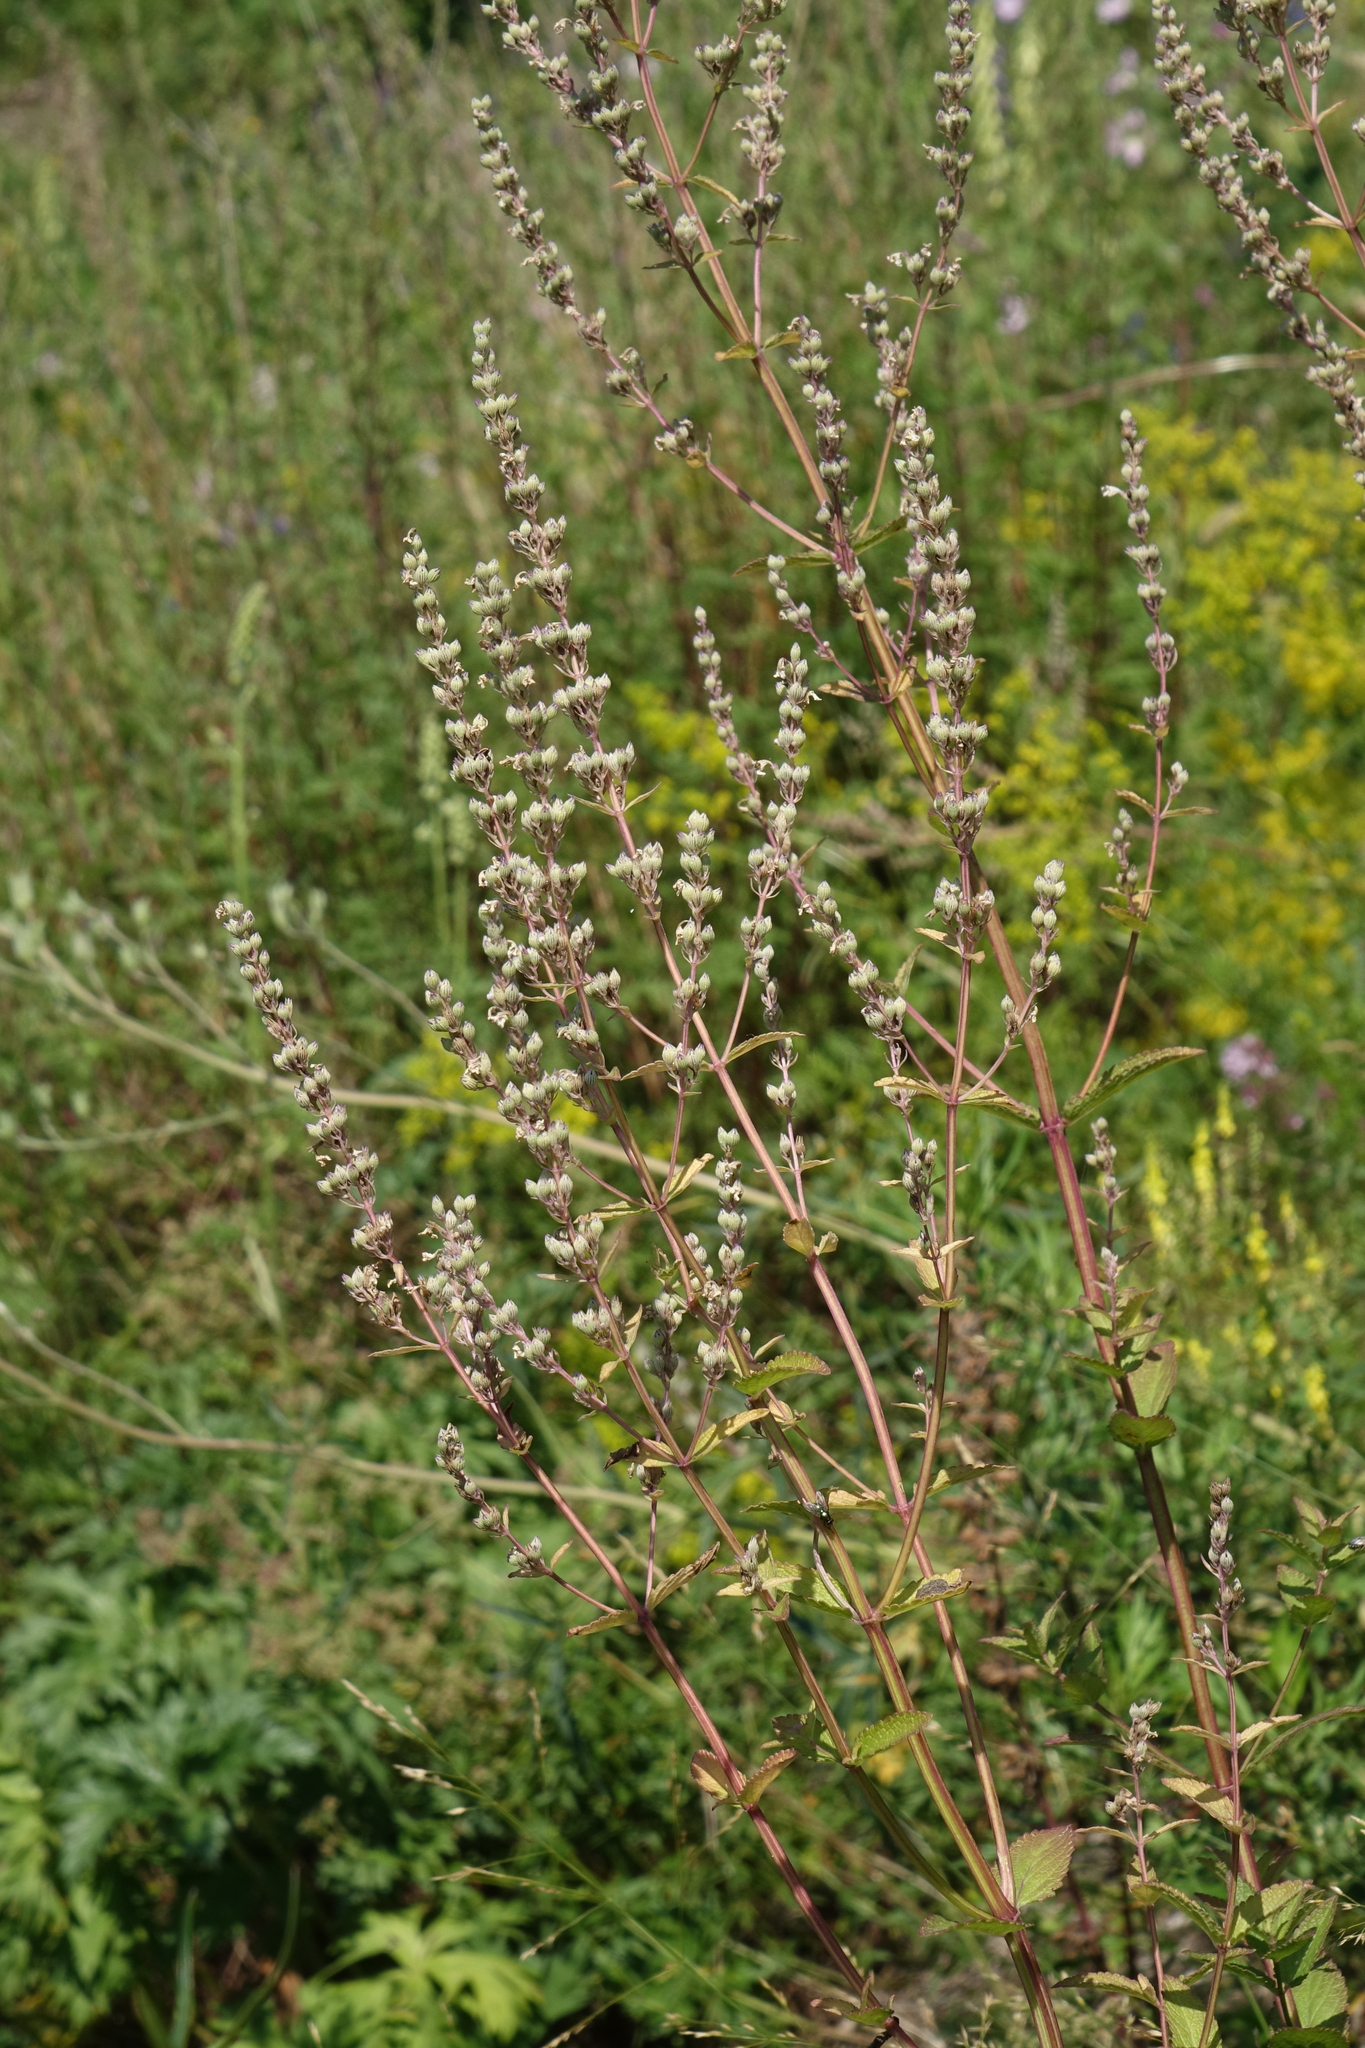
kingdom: Plantae
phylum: Tracheophyta
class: Magnoliopsida
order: Lamiales
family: Lamiaceae
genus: Nepeta
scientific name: Nepeta nuda
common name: Hairless catmint
